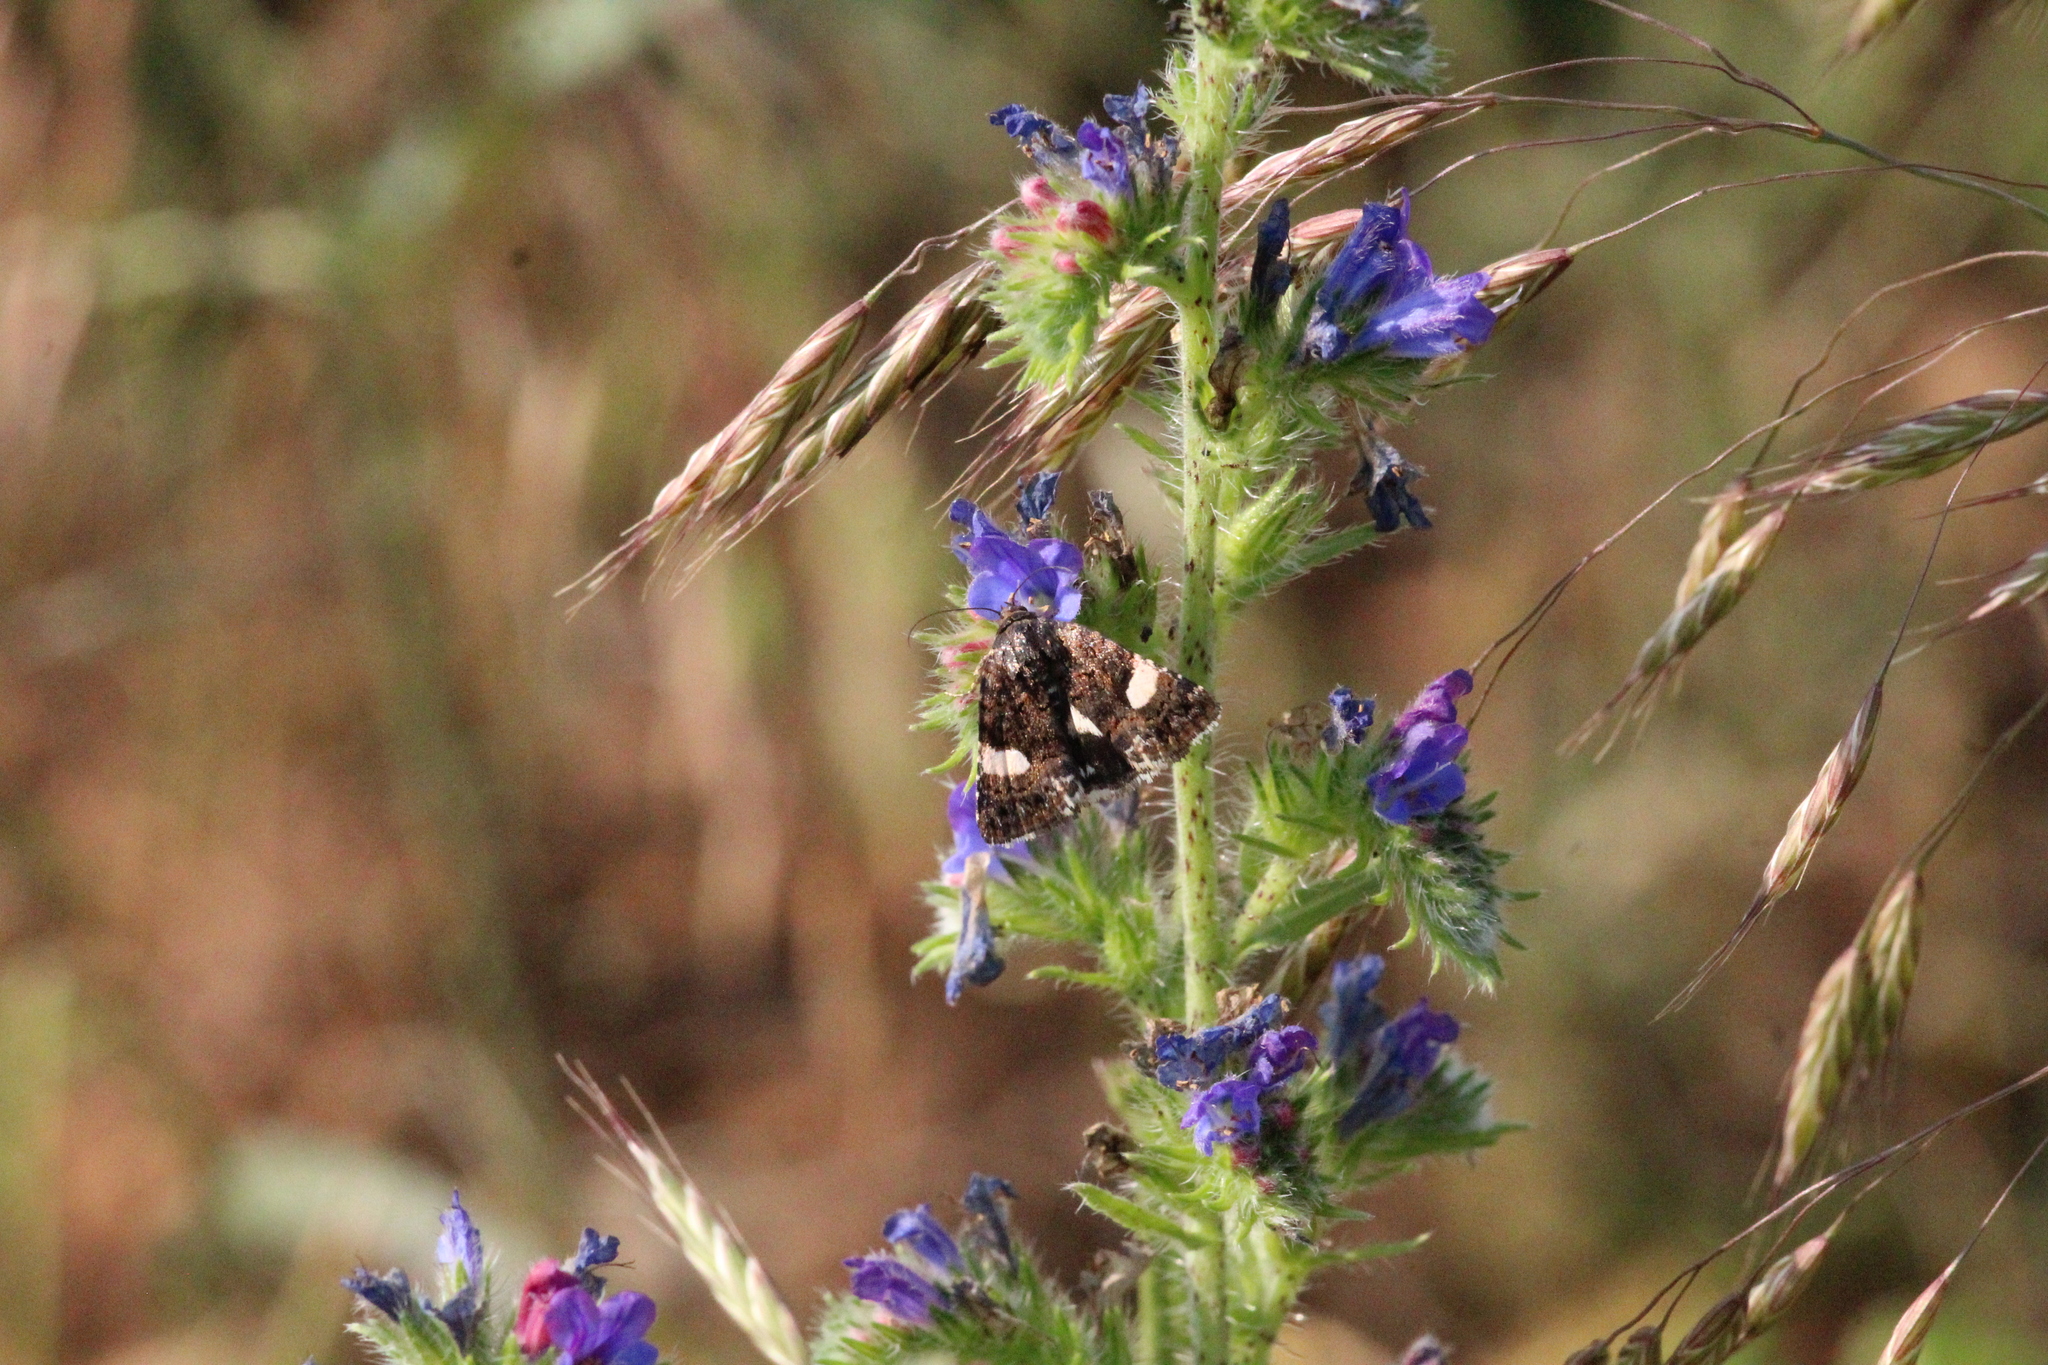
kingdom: Animalia
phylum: Arthropoda
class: Insecta
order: Lepidoptera
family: Erebidae
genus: Tyta
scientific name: Tyta luctuosa
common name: Four-spotted
